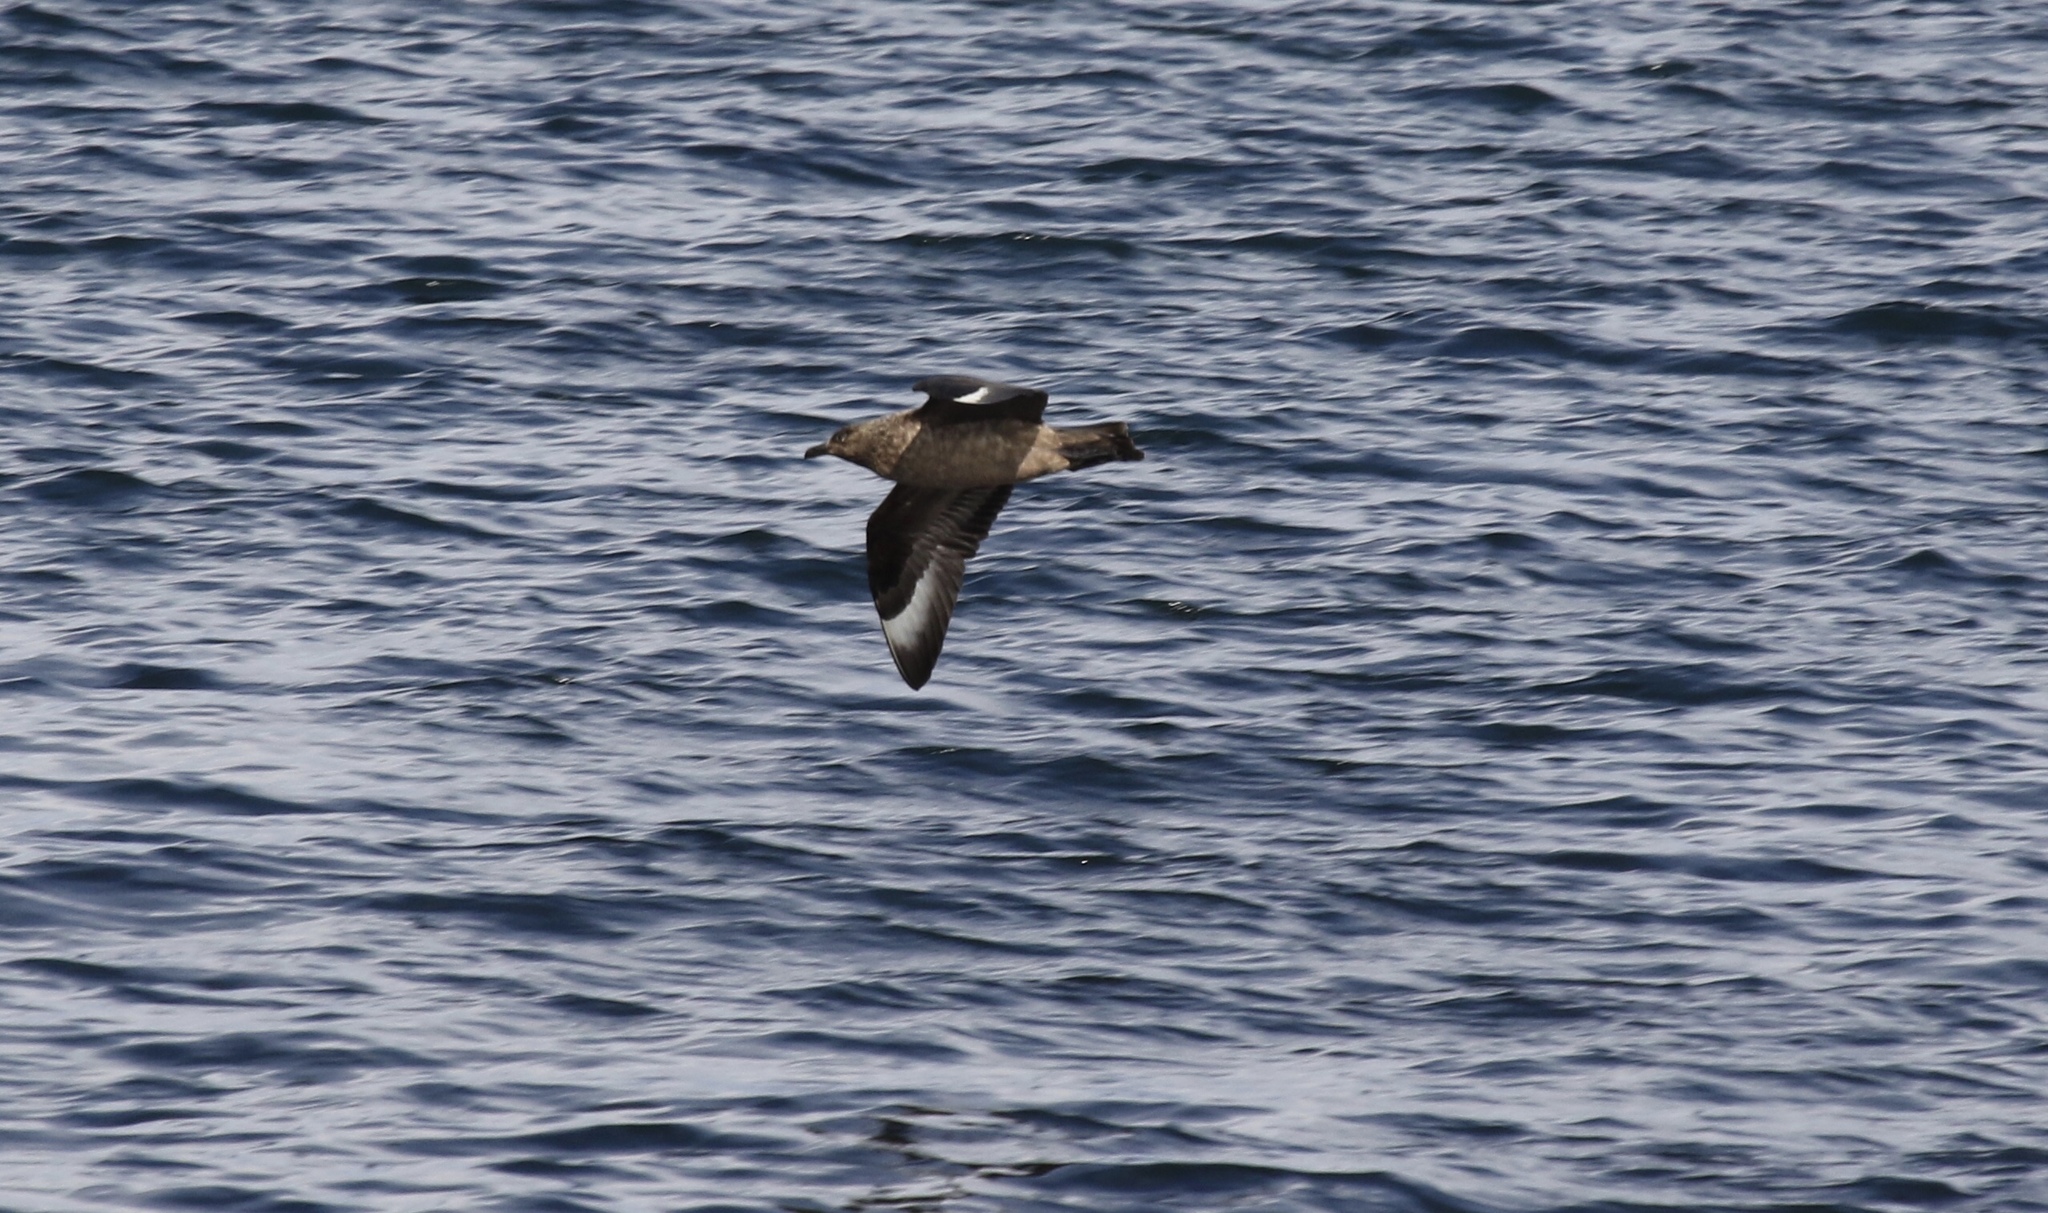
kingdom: Animalia
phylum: Chordata
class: Aves
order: Charadriiformes
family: Stercorariidae
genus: Stercorarius
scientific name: Stercorarius skua
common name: Great skua
